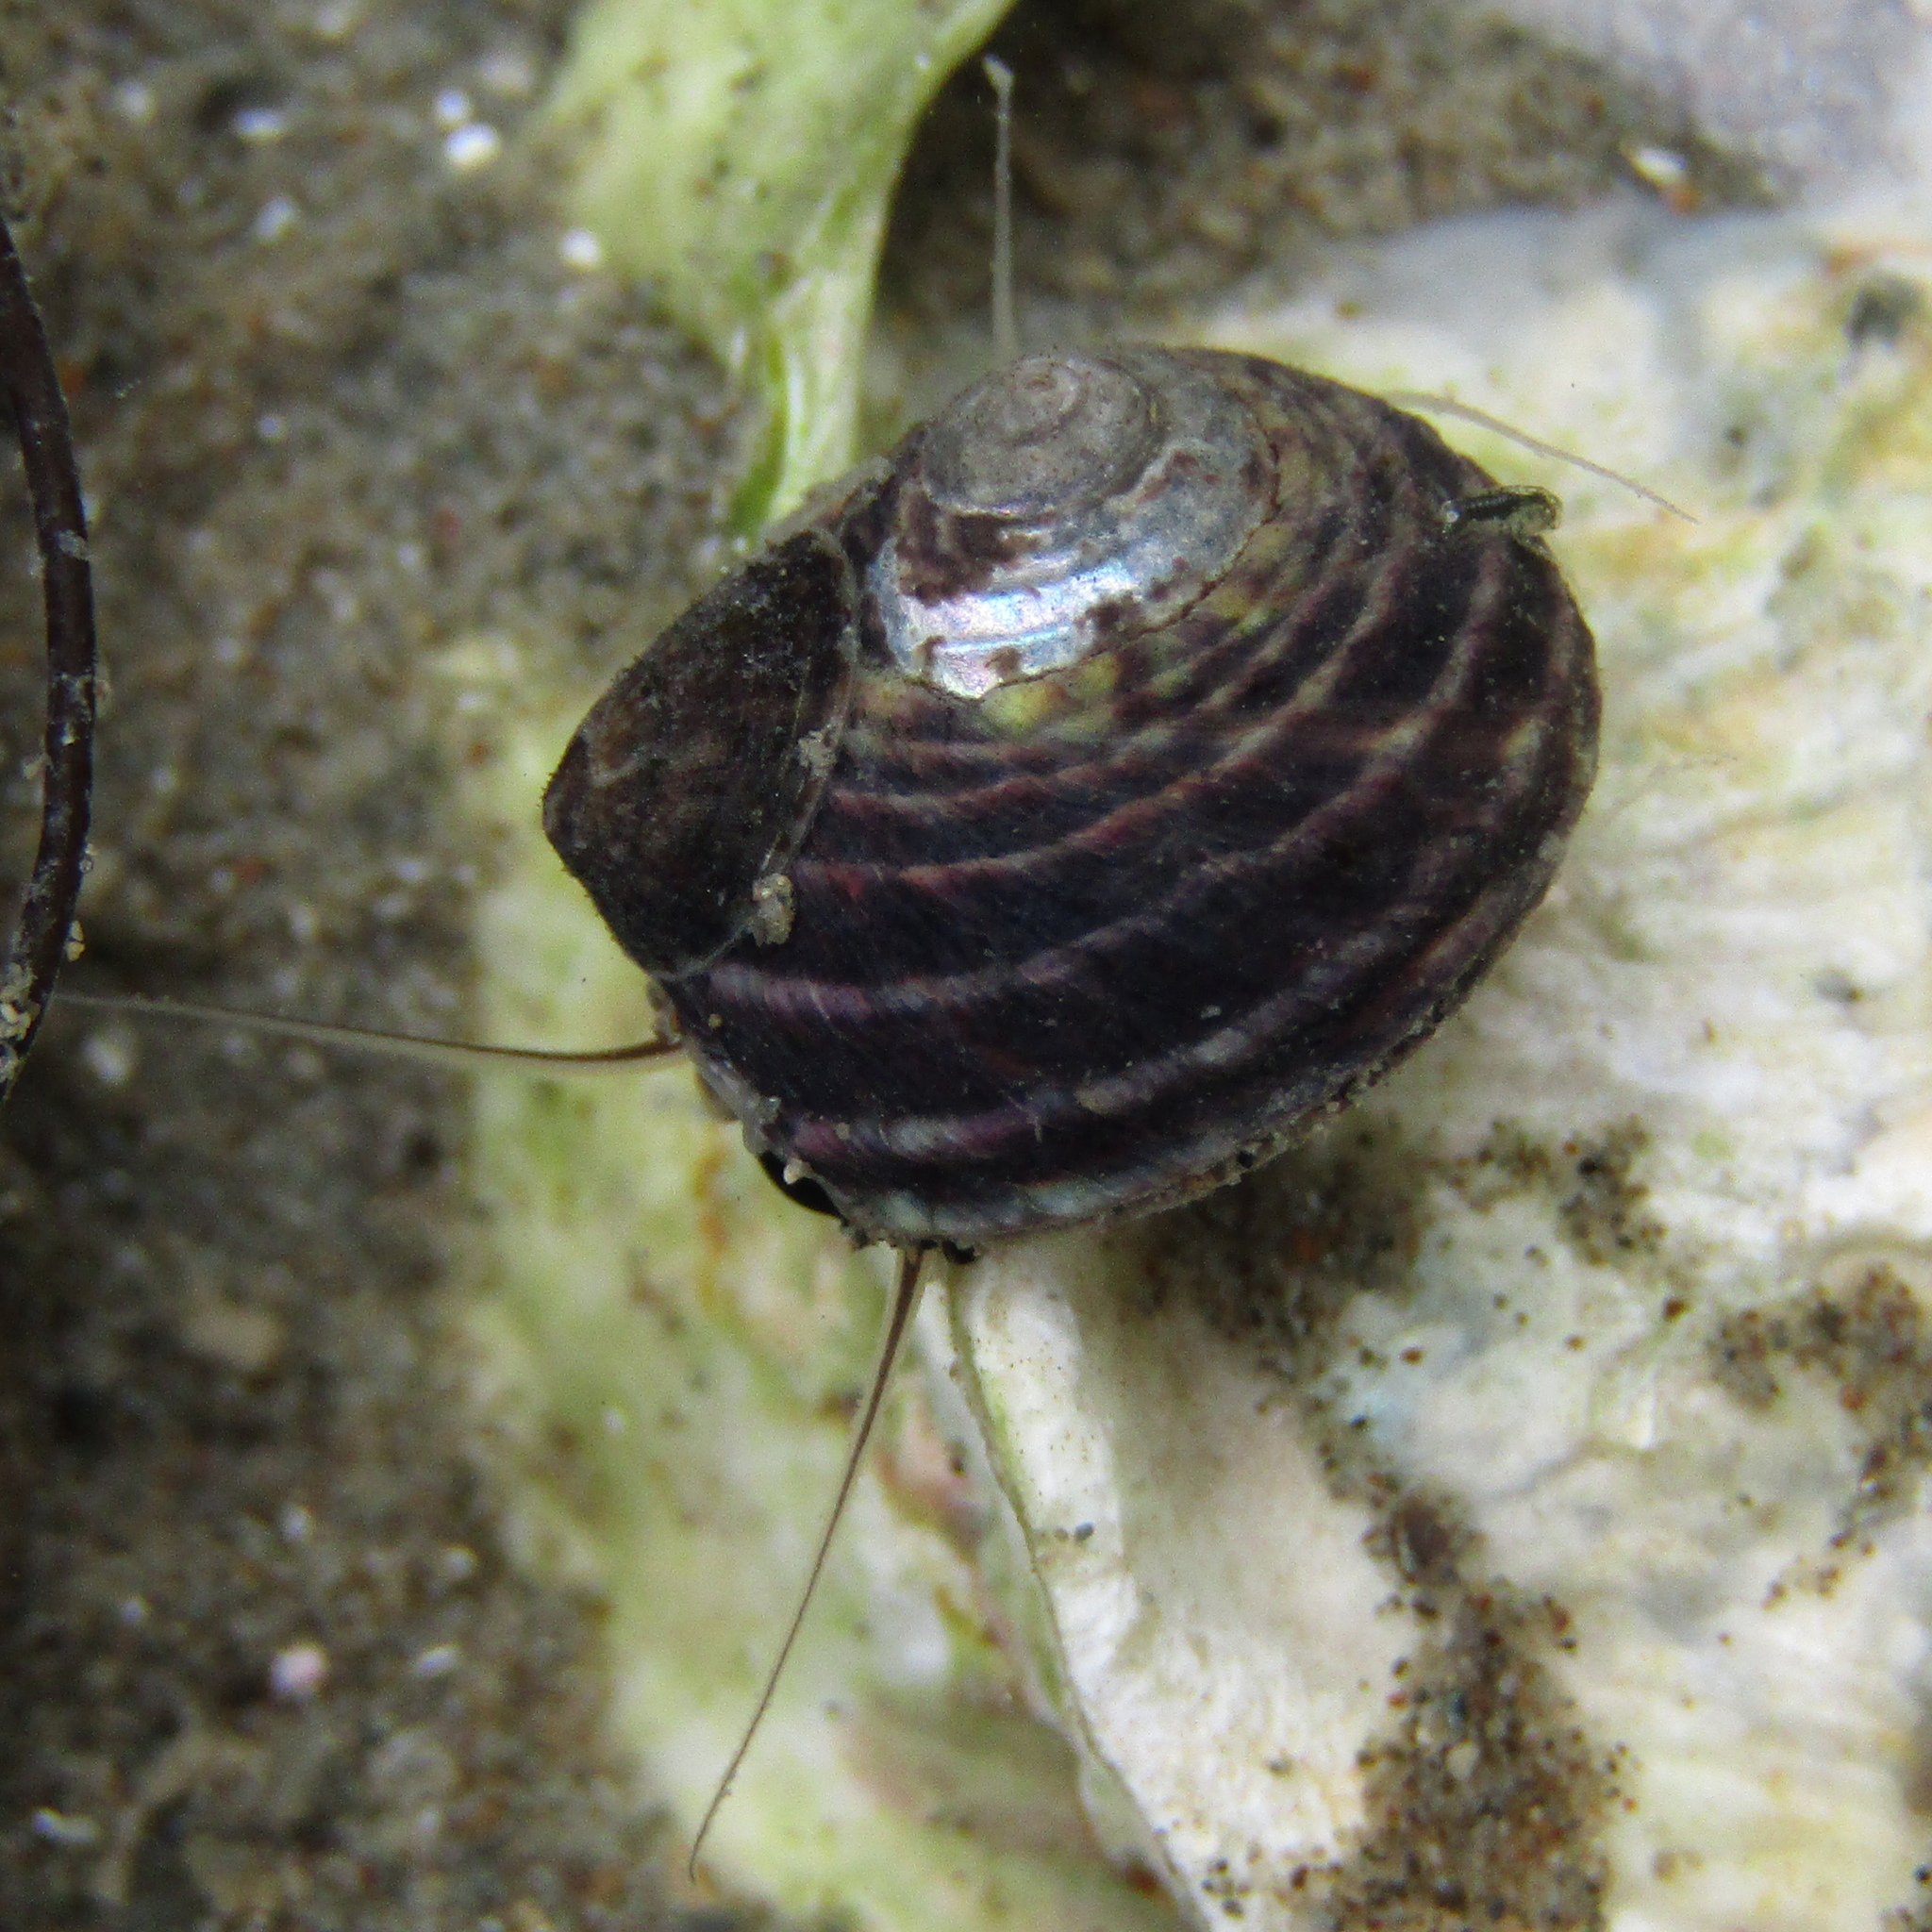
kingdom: Animalia
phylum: Mollusca
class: Gastropoda
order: Trochida
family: Trochidae
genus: Diloma
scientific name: Diloma subrostratum
